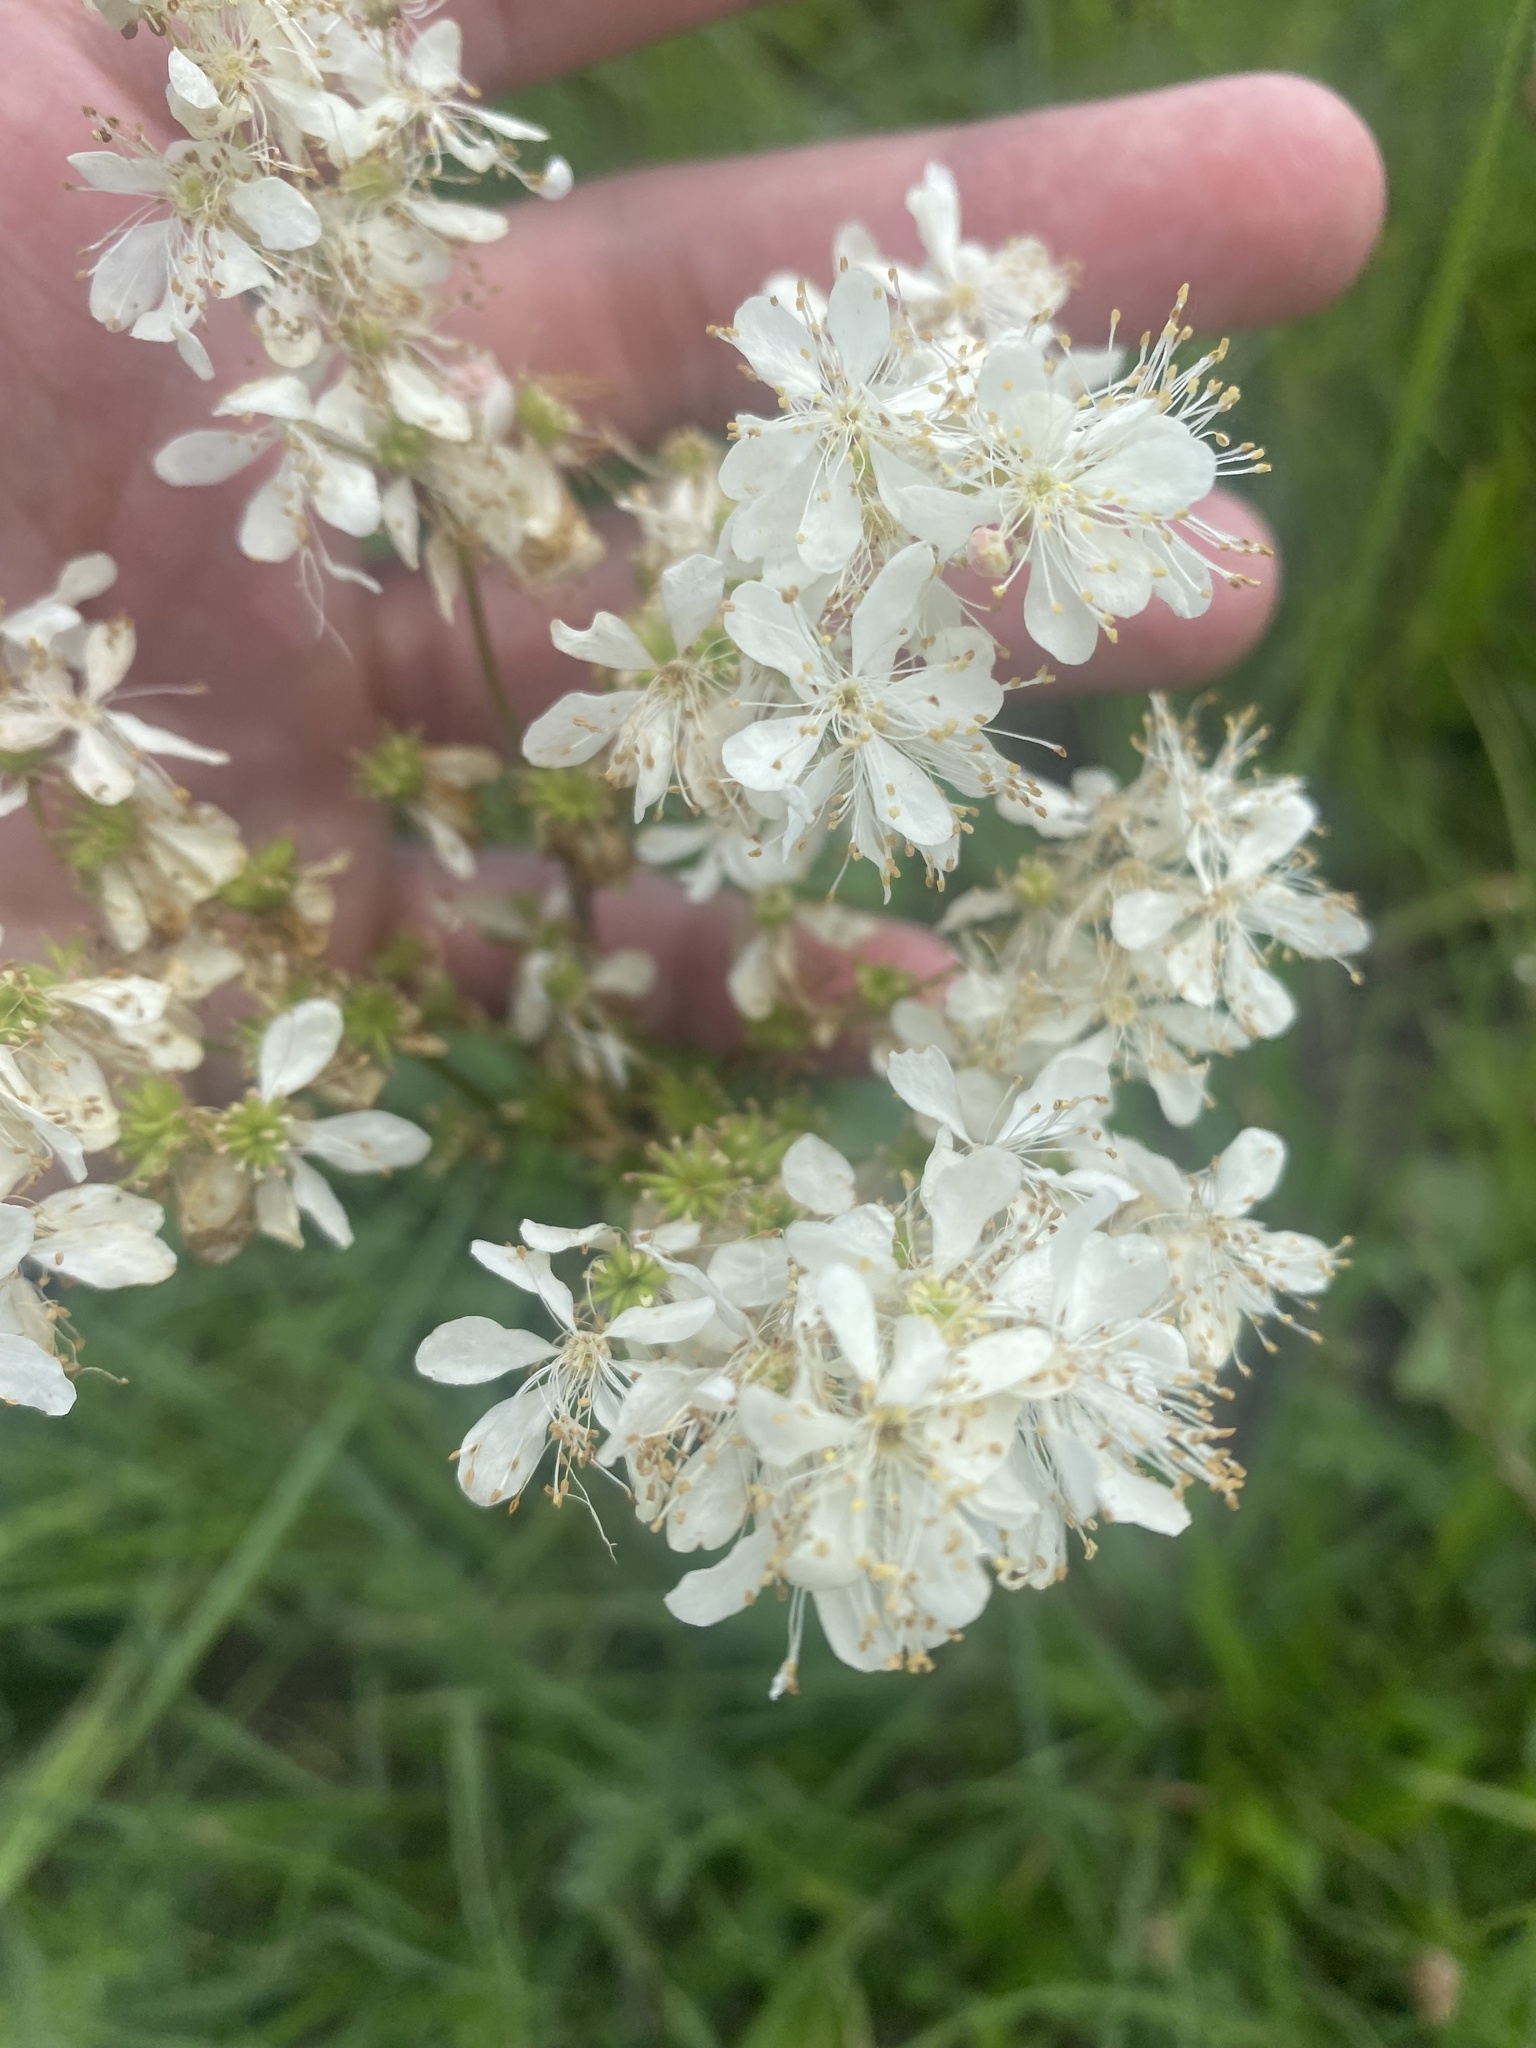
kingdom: Plantae
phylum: Tracheophyta
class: Magnoliopsida
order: Rosales
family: Rosaceae
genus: Filipendula
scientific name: Filipendula vulgaris
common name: Dropwort
